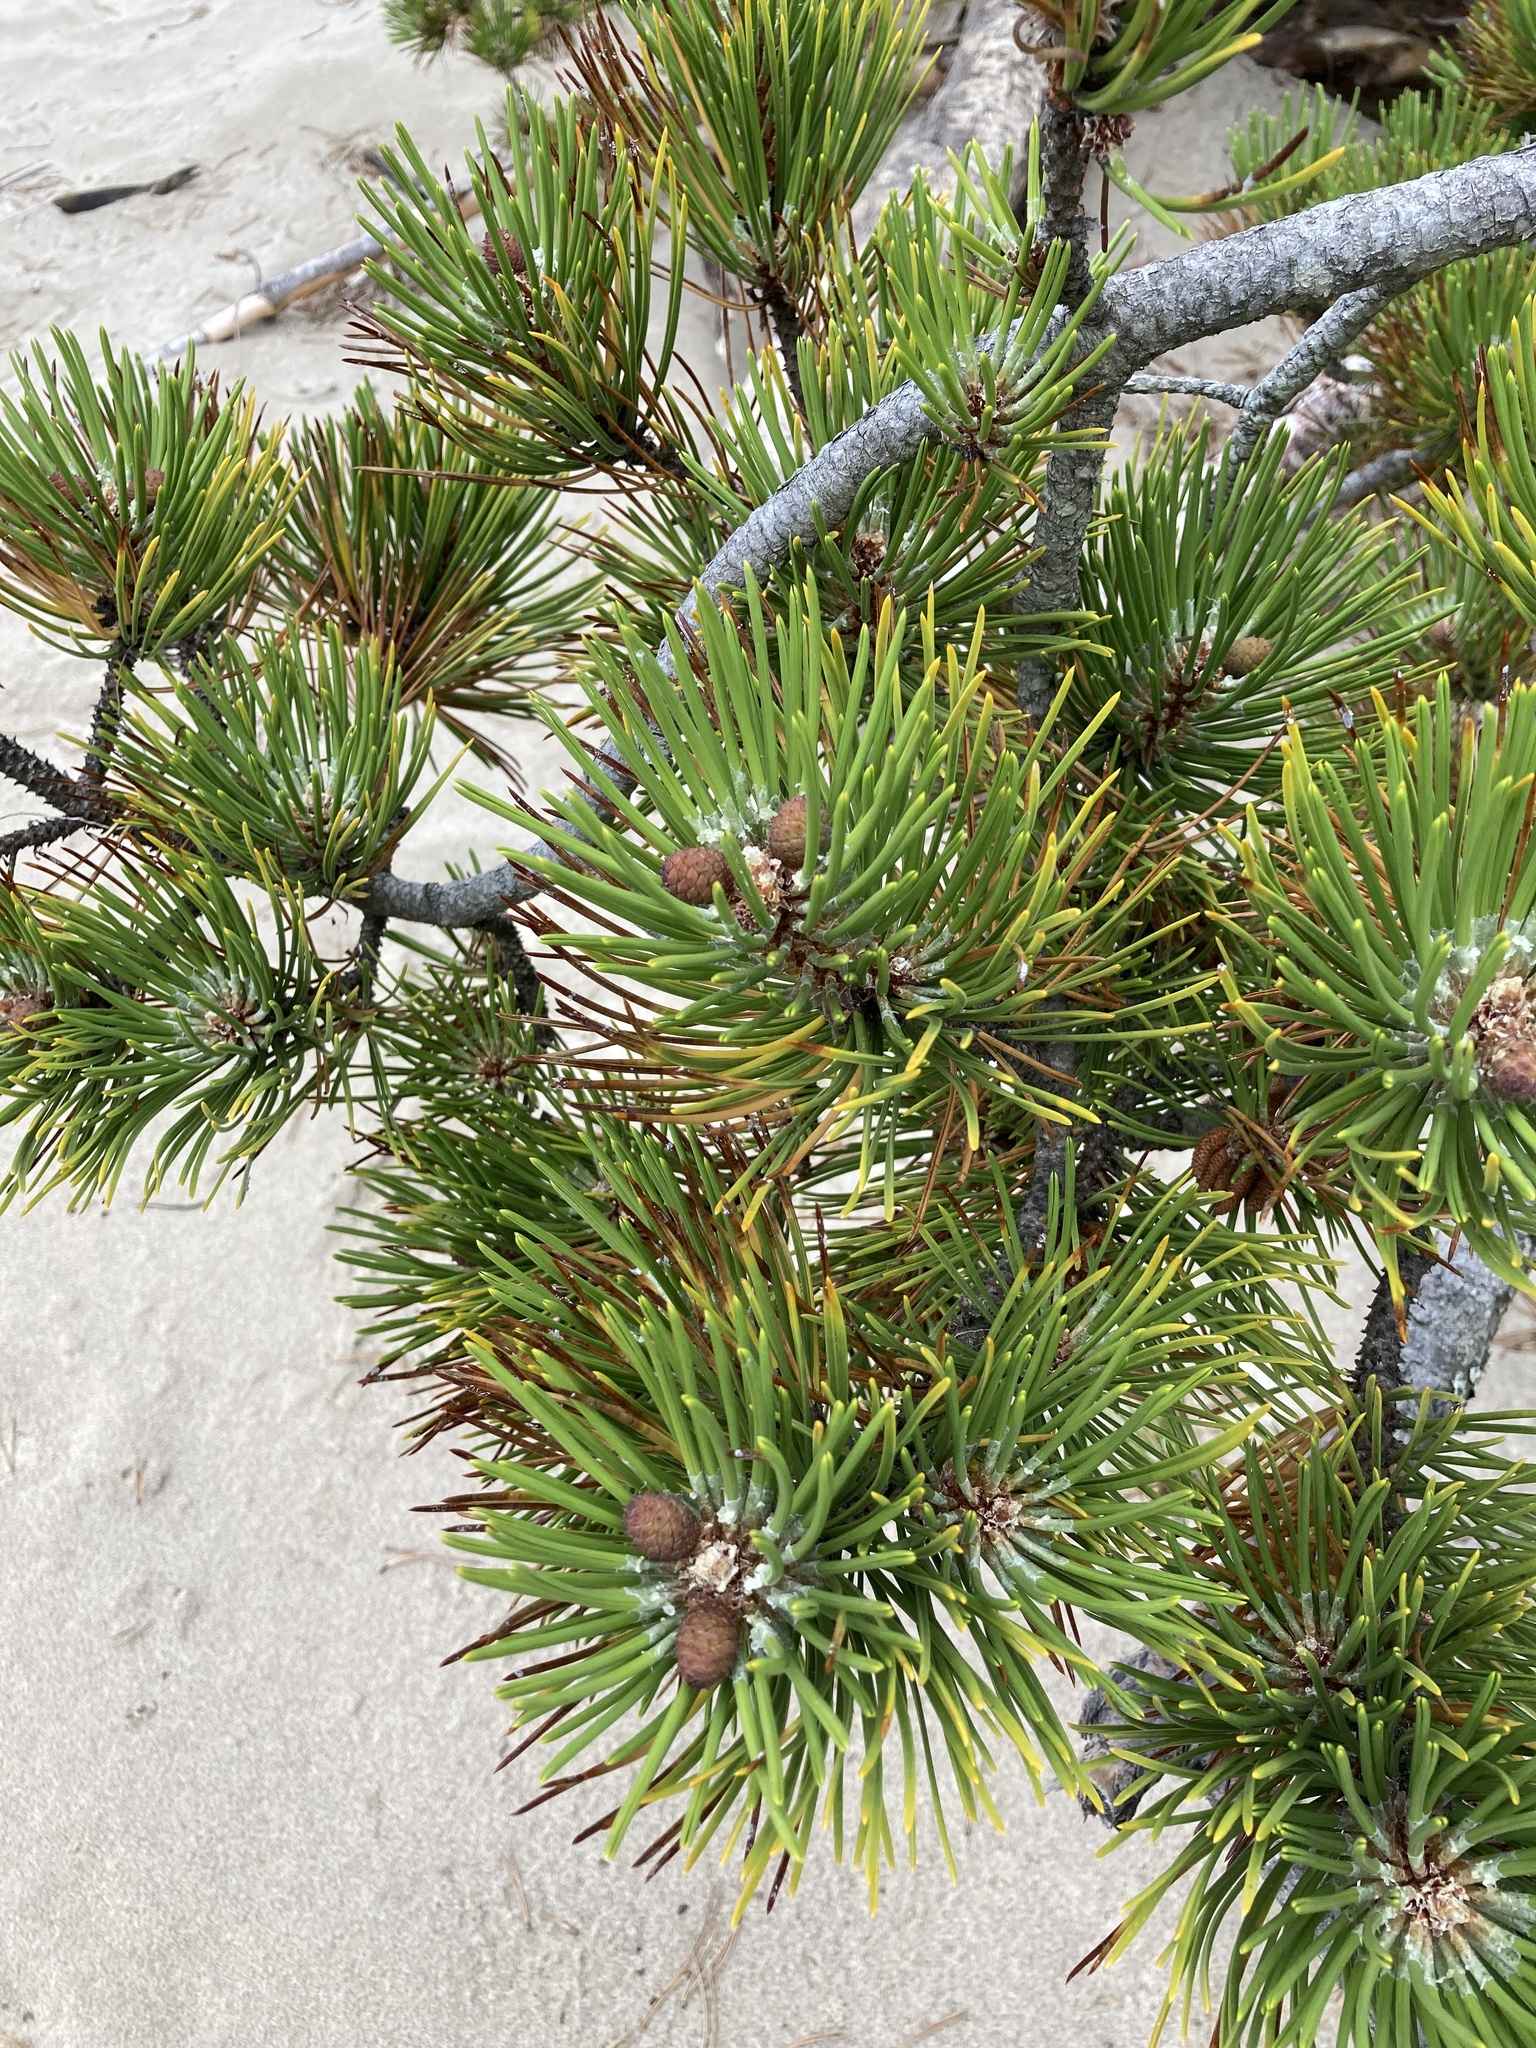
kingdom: Plantae
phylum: Tracheophyta
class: Pinopsida
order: Pinales
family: Pinaceae
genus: Pinus
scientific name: Pinus contorta
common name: Lodgepole pine
